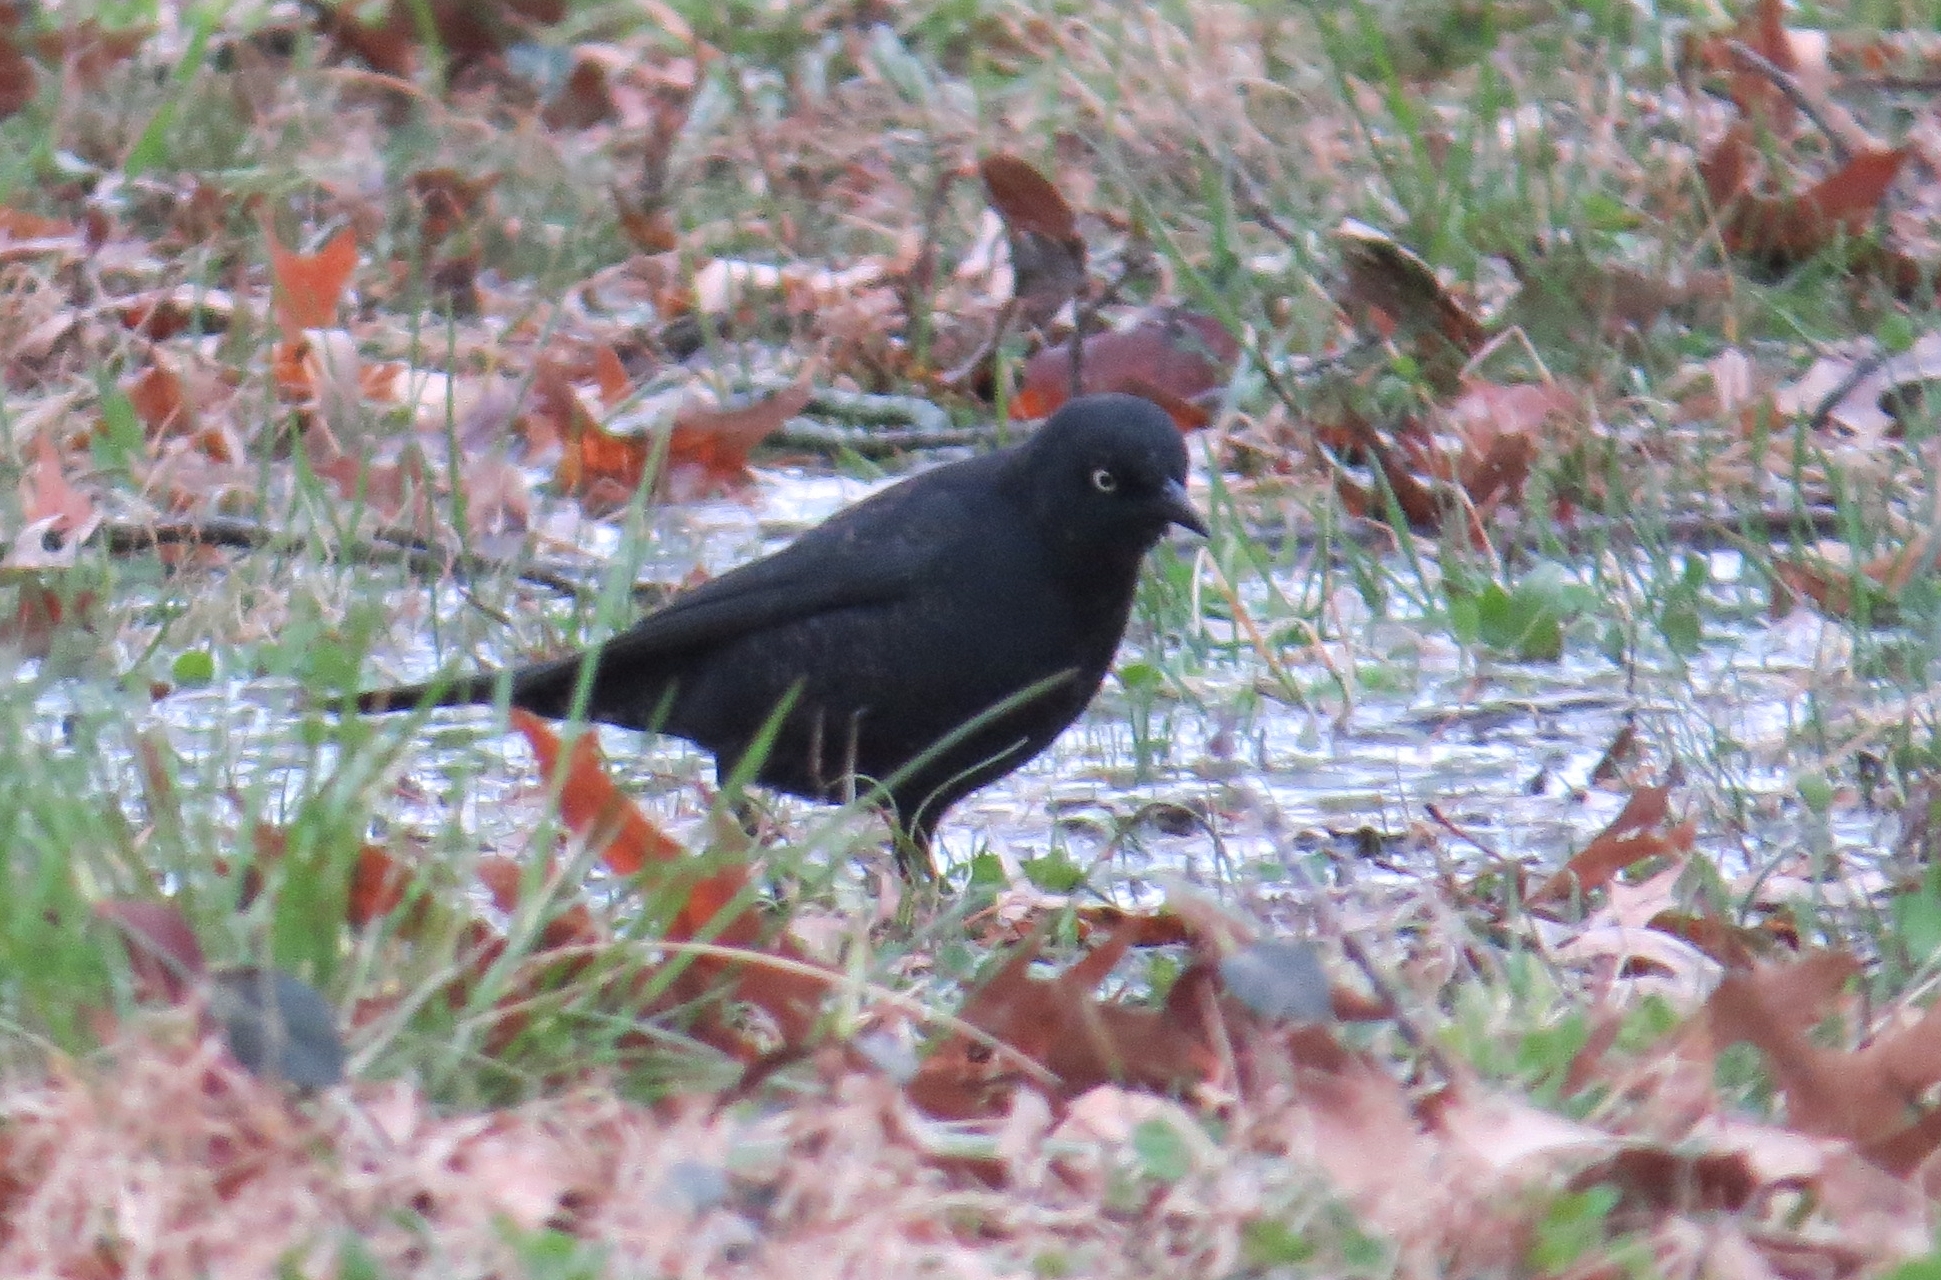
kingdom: Animalia
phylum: Chordata
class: Aves
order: Passeriformes
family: Icteridae
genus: Euphagus
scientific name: Euphagus carolinus
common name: Rusty blackbird
